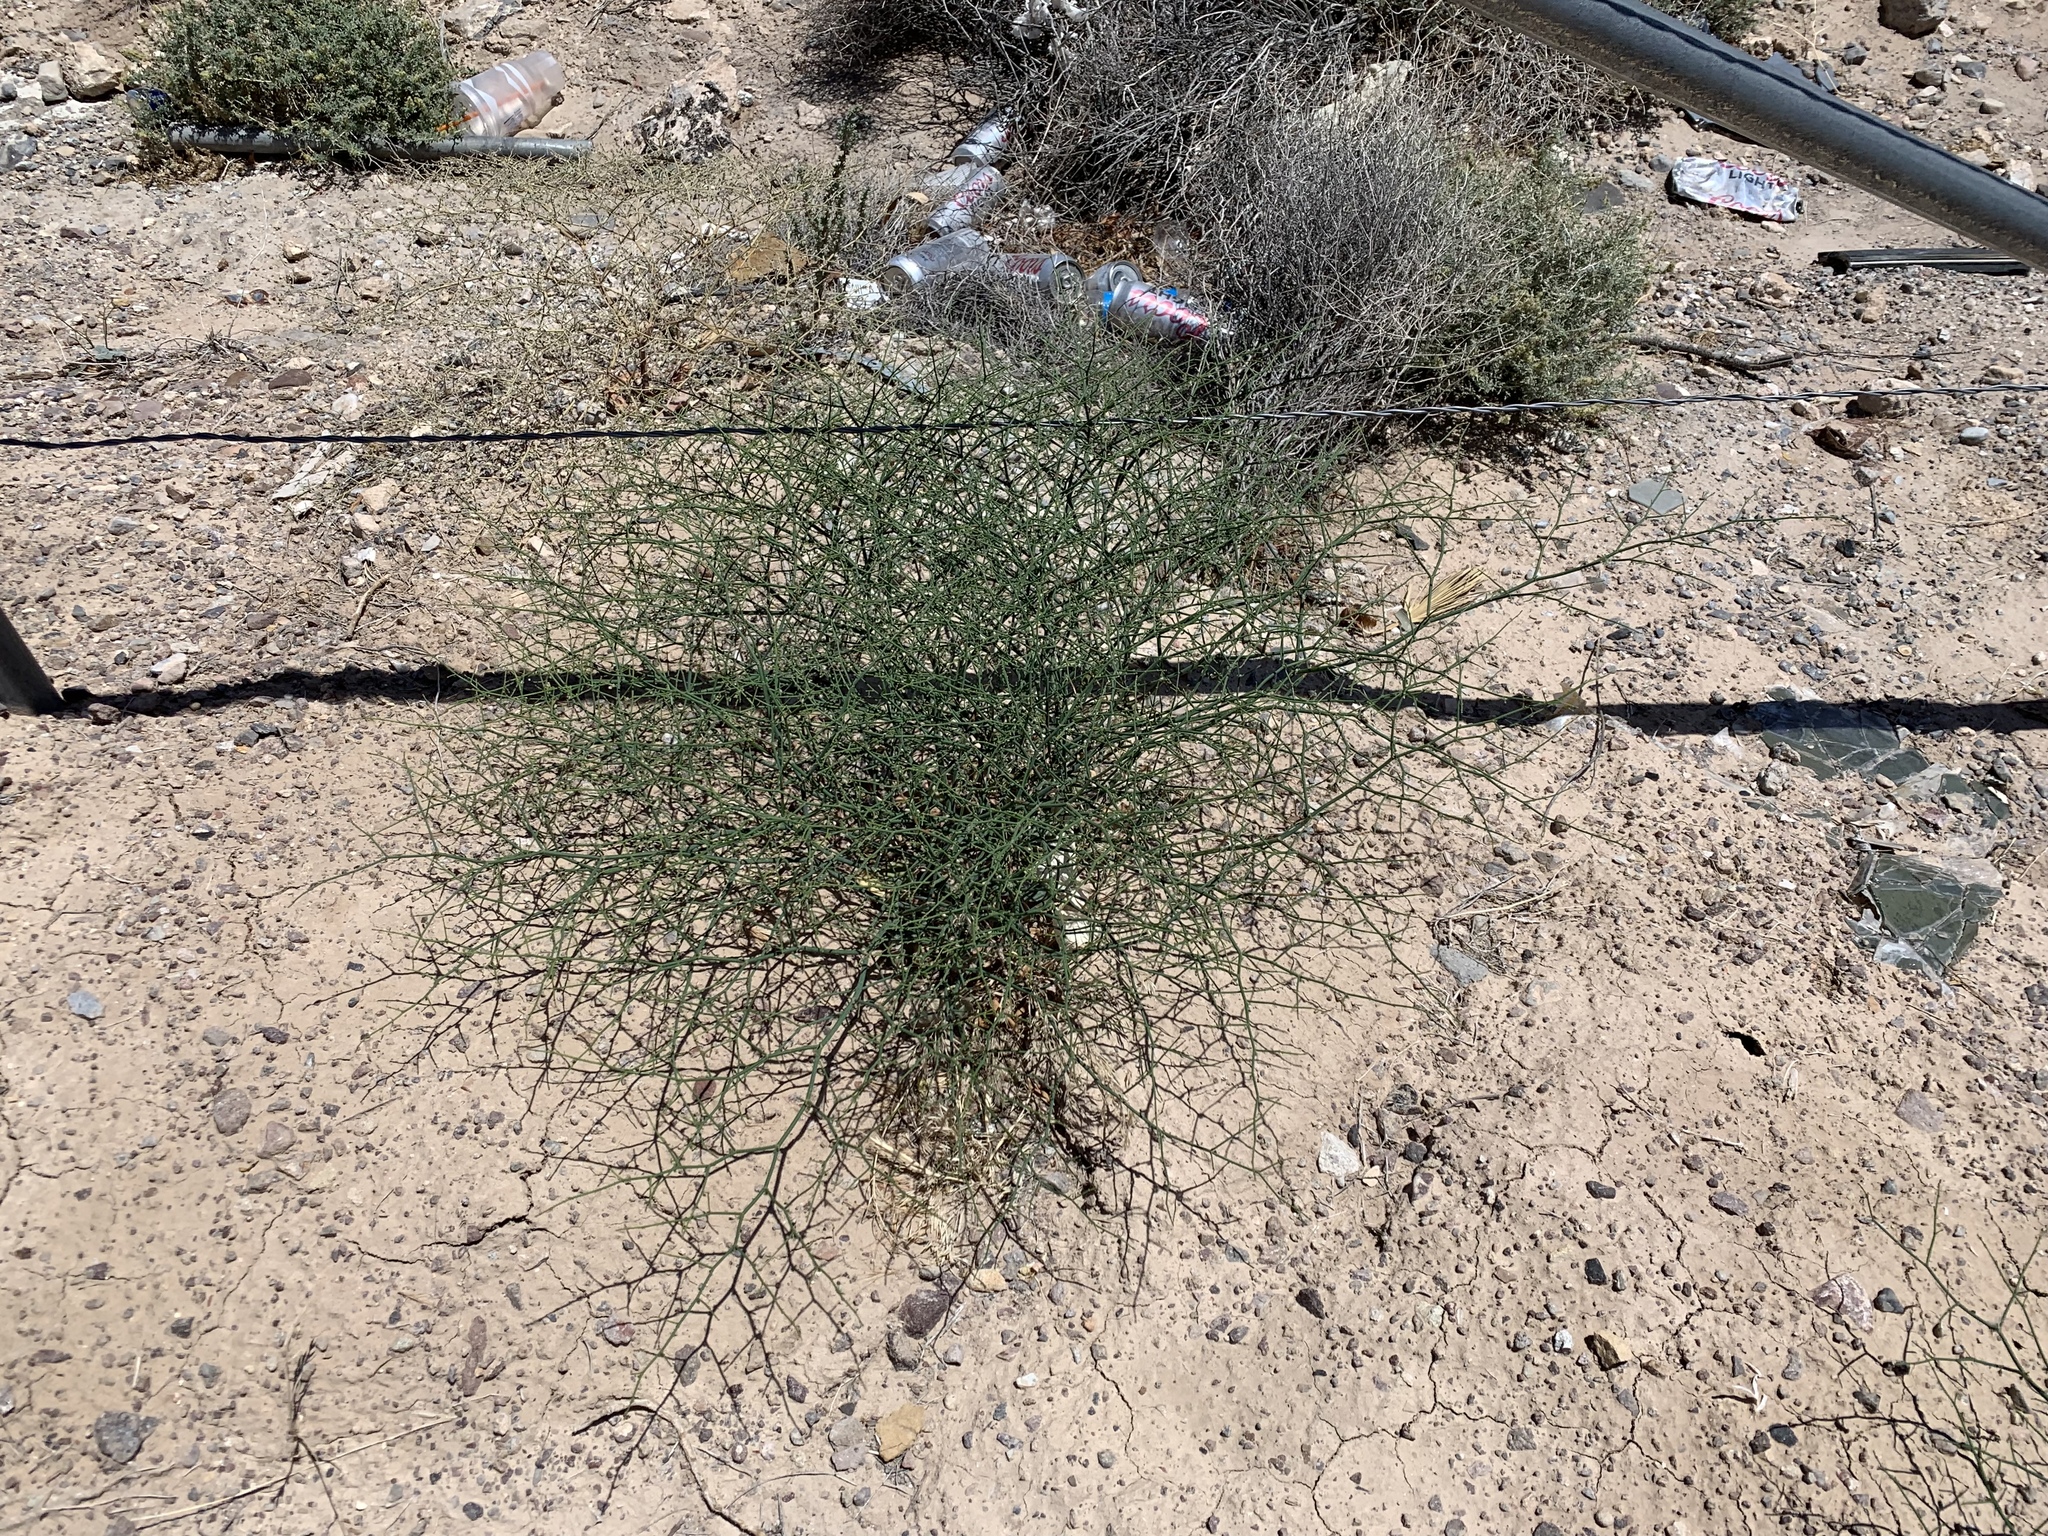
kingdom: Plantae
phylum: Tracheophyta
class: Magnoliopsida
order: Caryophyllales
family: Polygonaceae
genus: Eriogonum
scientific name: Eriogonum deflexum
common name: Skeleton-weed
